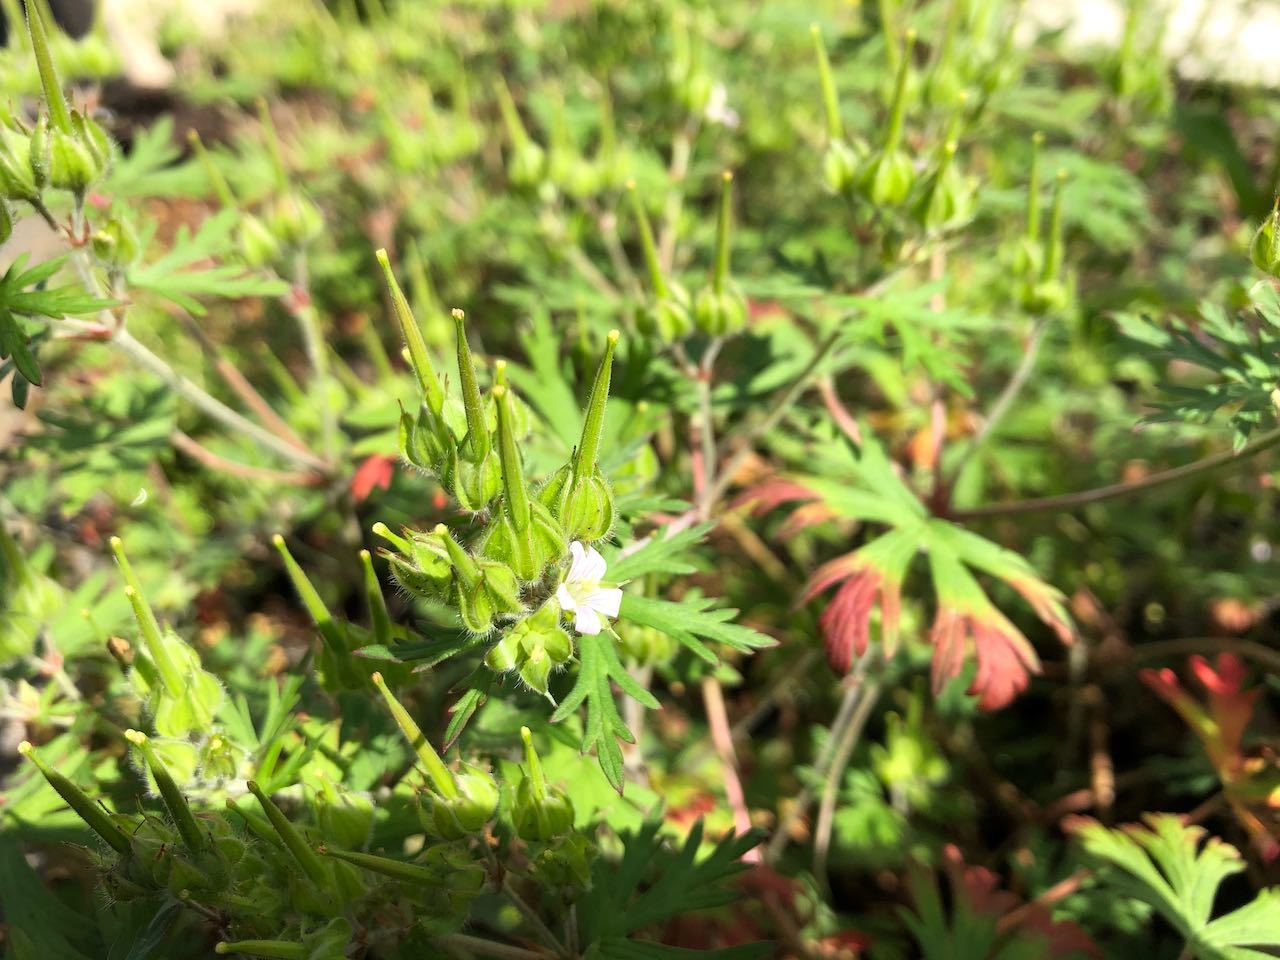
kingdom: Plantae
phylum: Tracheophyta
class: Magnoliopsida
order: Geraniales
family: Geraniaceae
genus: Geranium
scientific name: Geranium carolinianum
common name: Carolina crane's-bill
